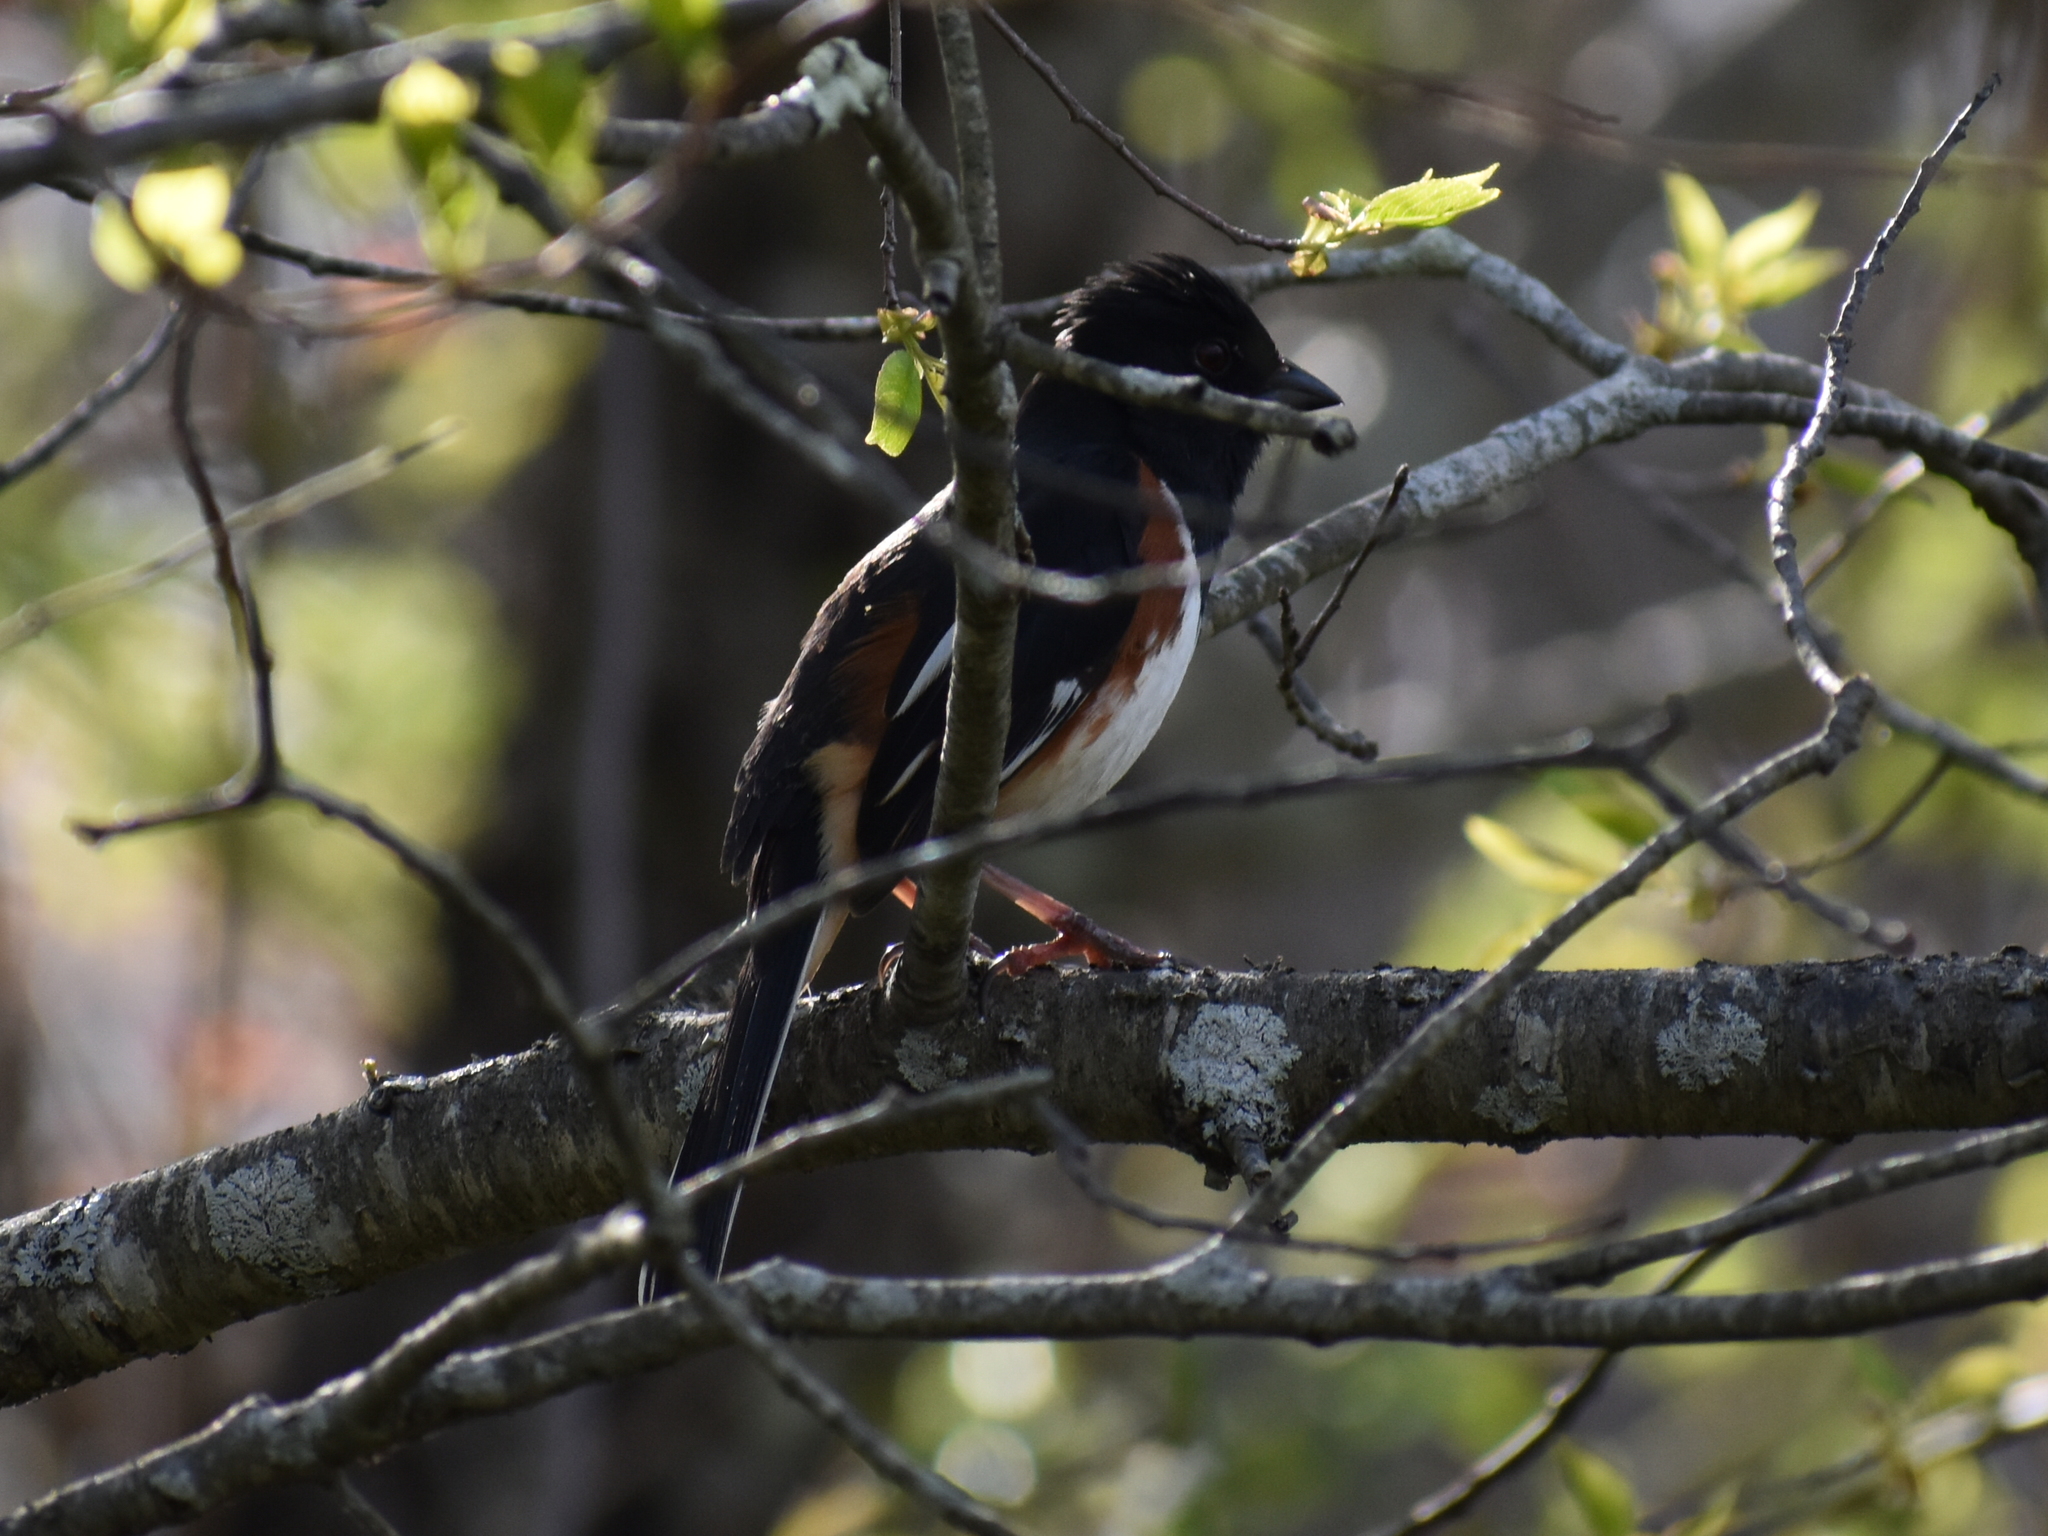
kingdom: Animalia
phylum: Chordata
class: Aves
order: Passeriformes
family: Passerellidae
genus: Pipilo
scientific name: Pipilo erythrophthalmus
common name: Eastern towhee
